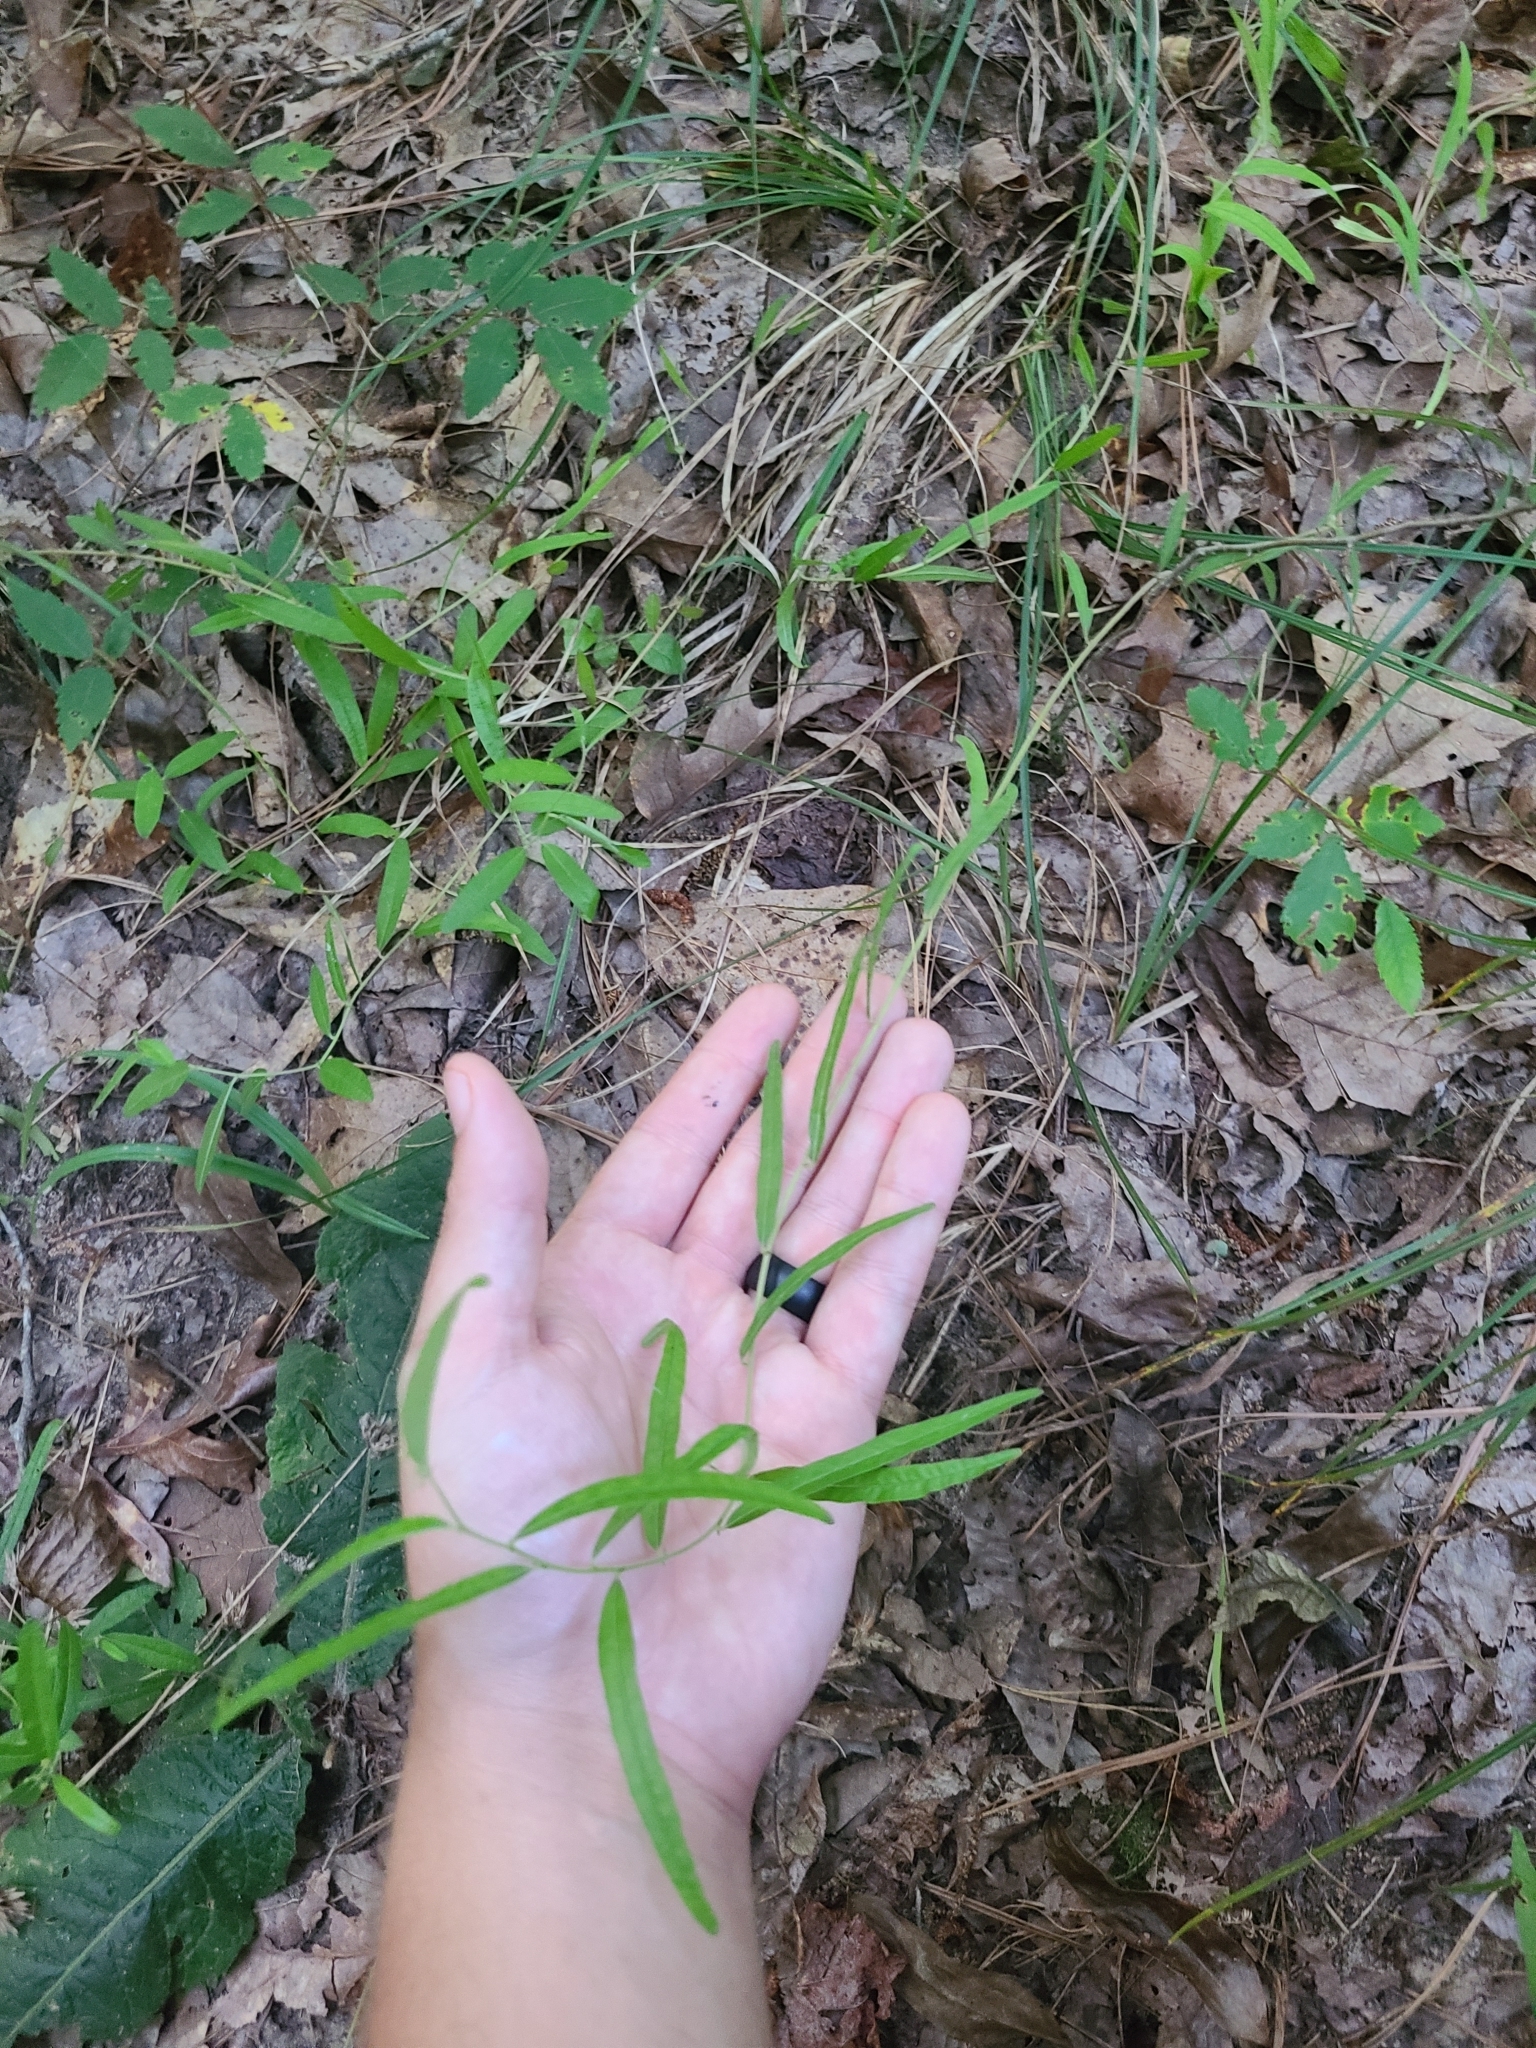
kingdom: Plantae
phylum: Tracheophyta
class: Magnoliopsida
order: Malpighiales
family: Euphorbiaceae
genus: Tragia
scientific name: Tragia urens
